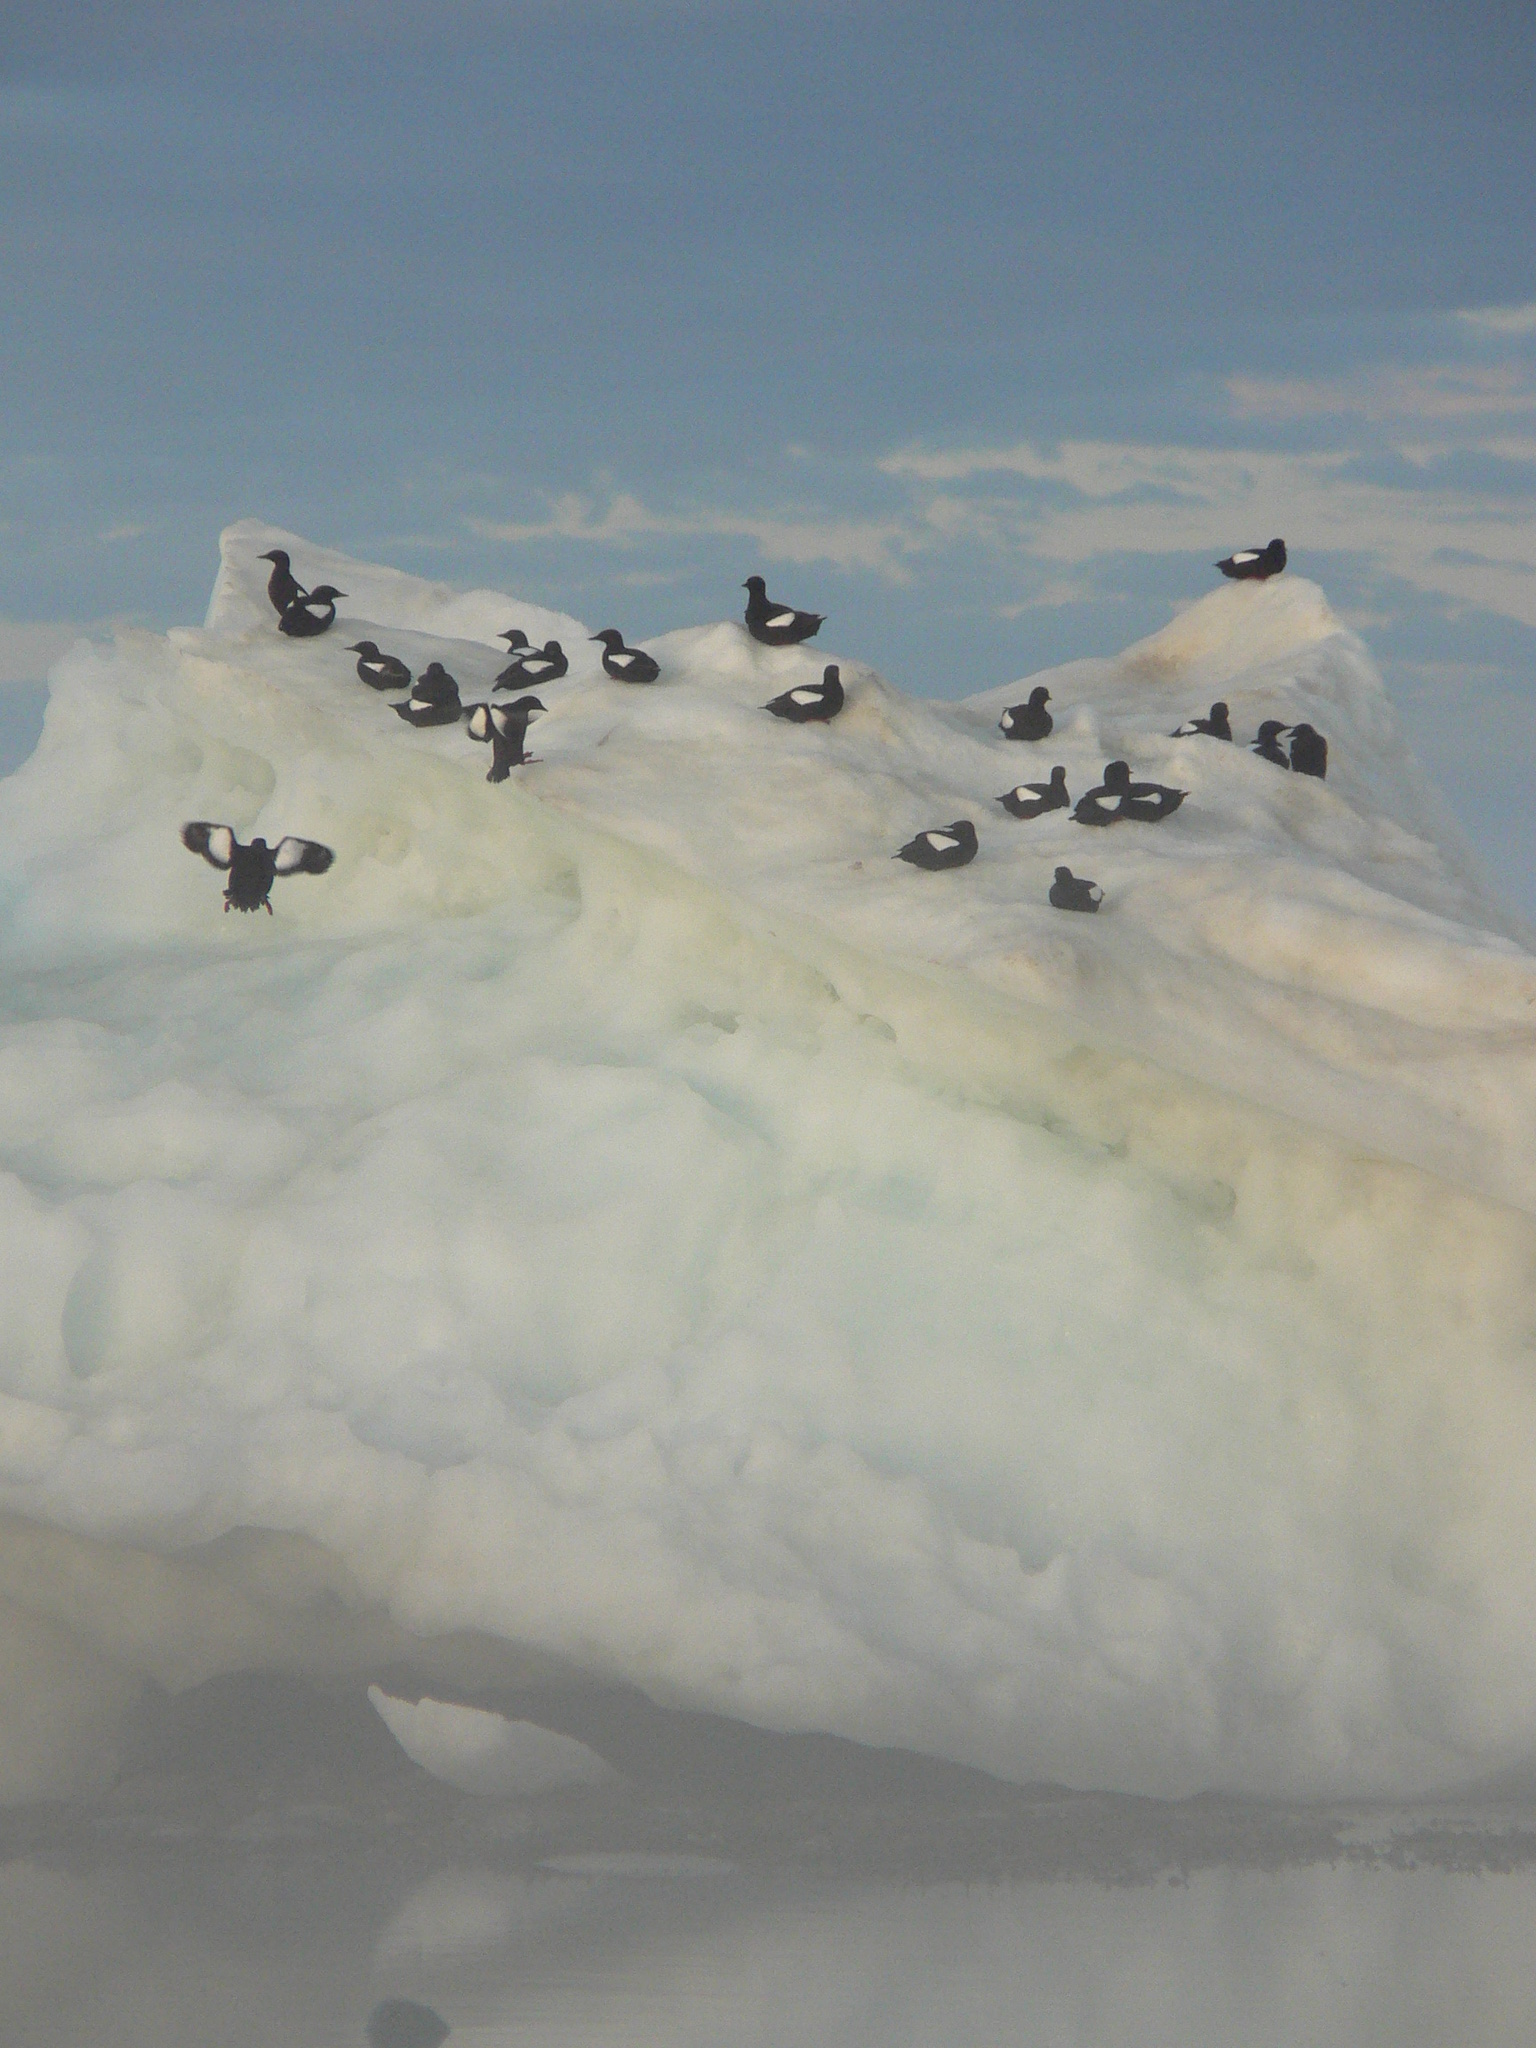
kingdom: Animalia
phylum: Chordata
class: Aves
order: Charadriiformes
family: Alcidae
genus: Cepphus
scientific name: Cepphus grylle
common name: Black guillemot
